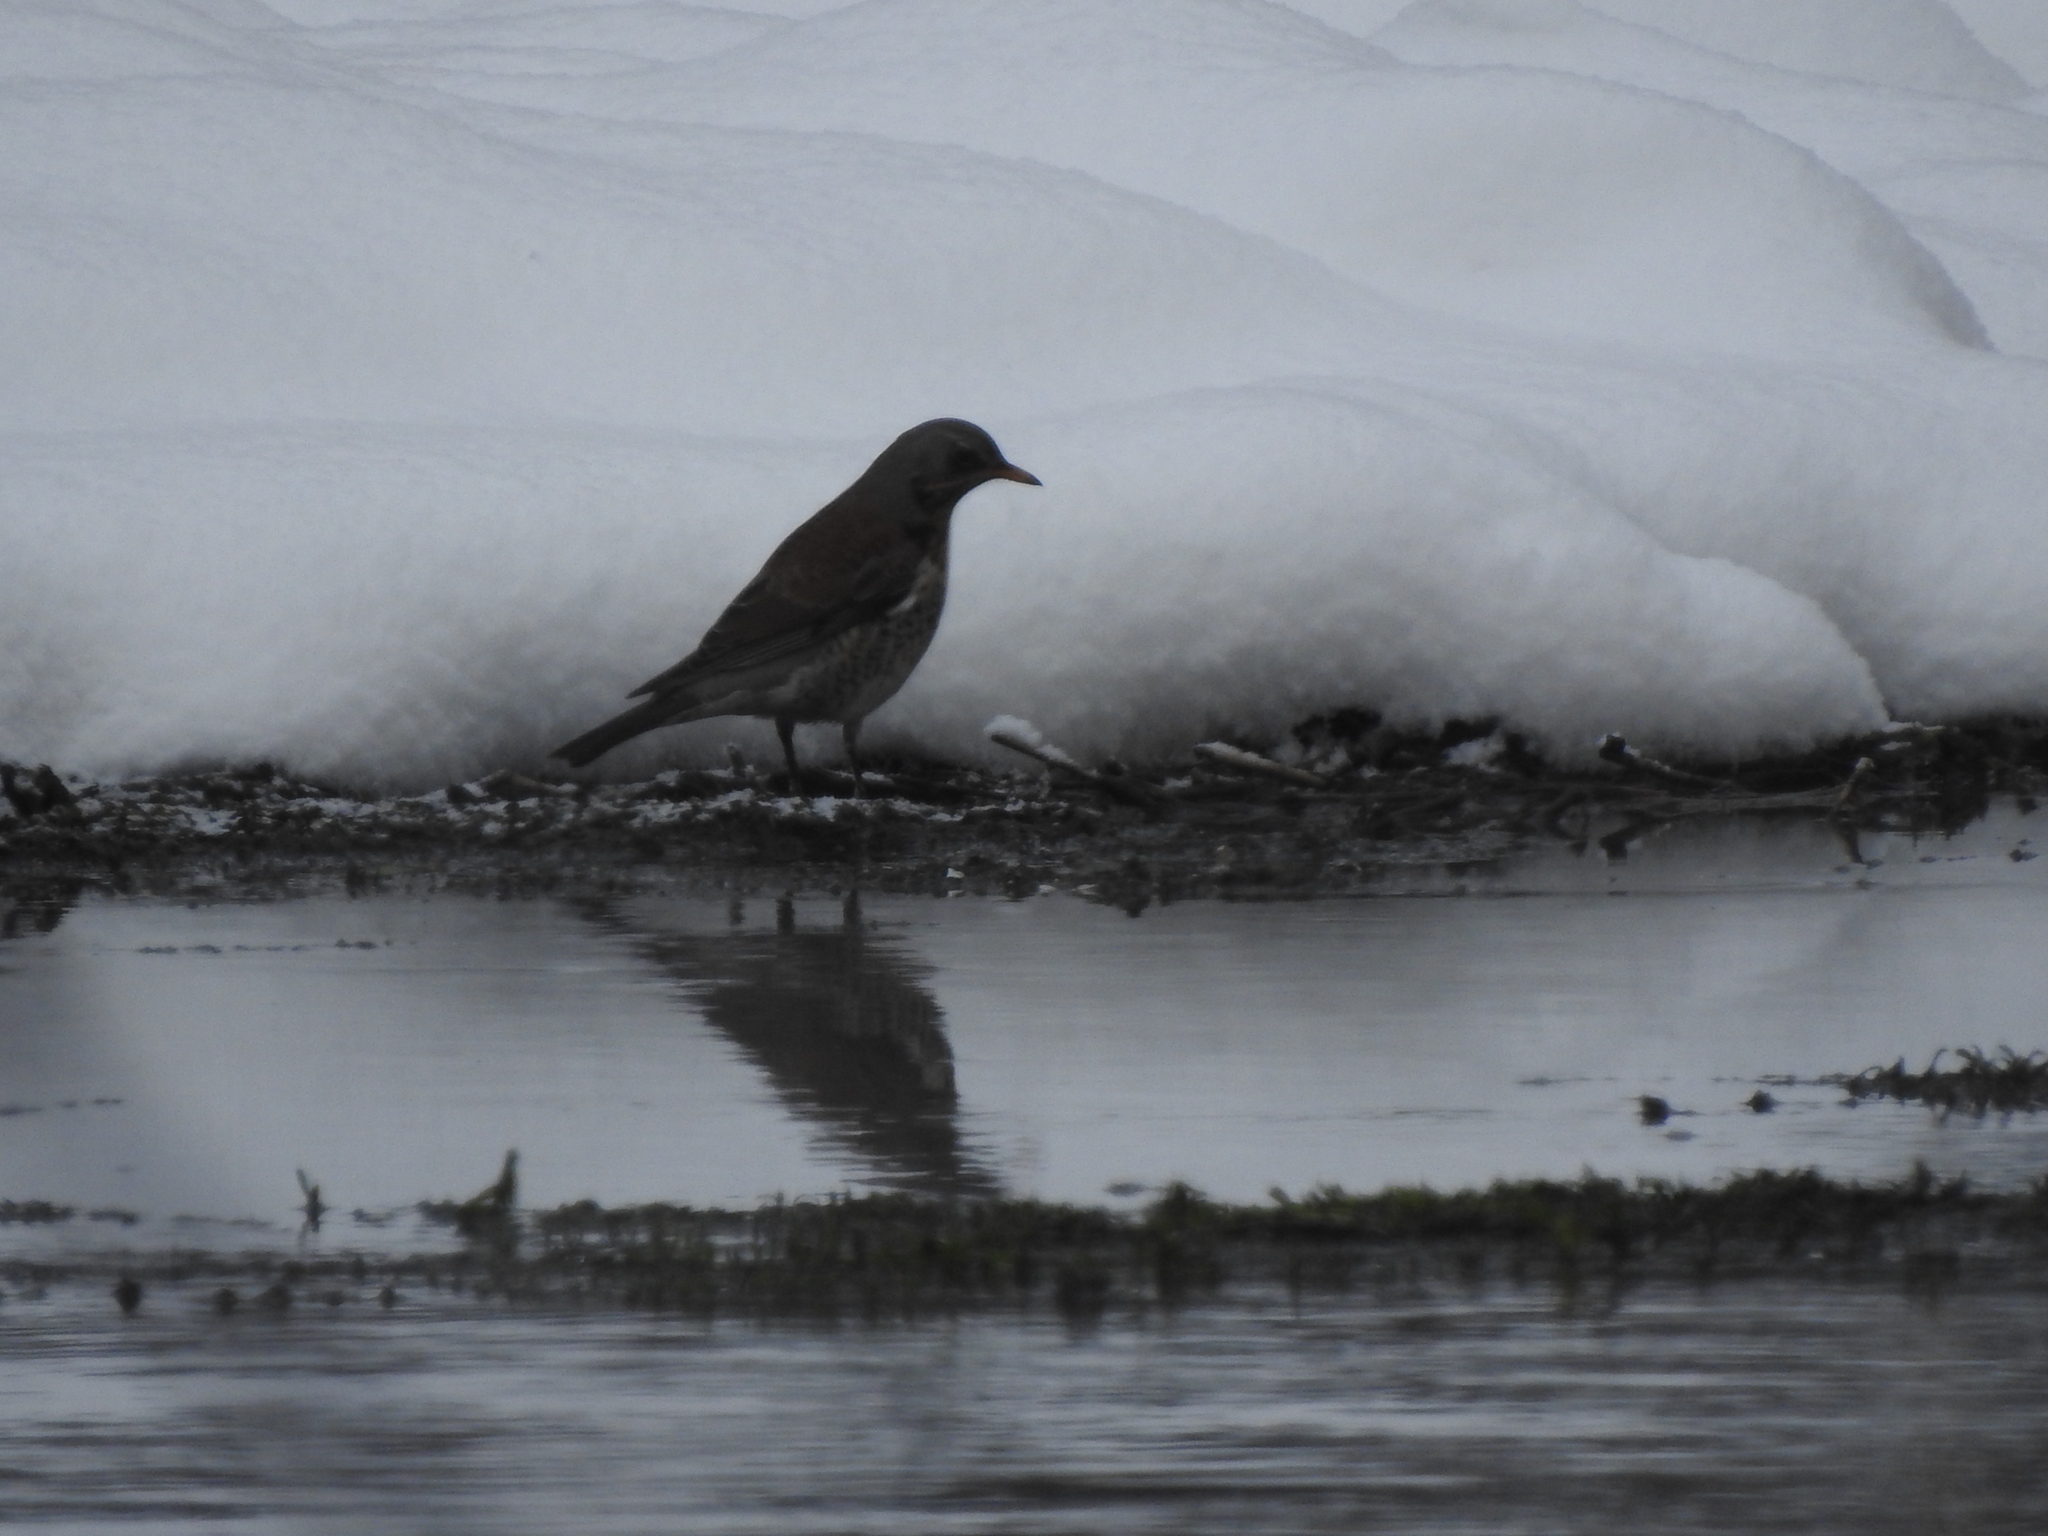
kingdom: Animalia
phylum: Chordata
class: Aves
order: Passeriformes
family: Turdidae
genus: Turdus
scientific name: Turdus pilaris
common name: Fieldfare
